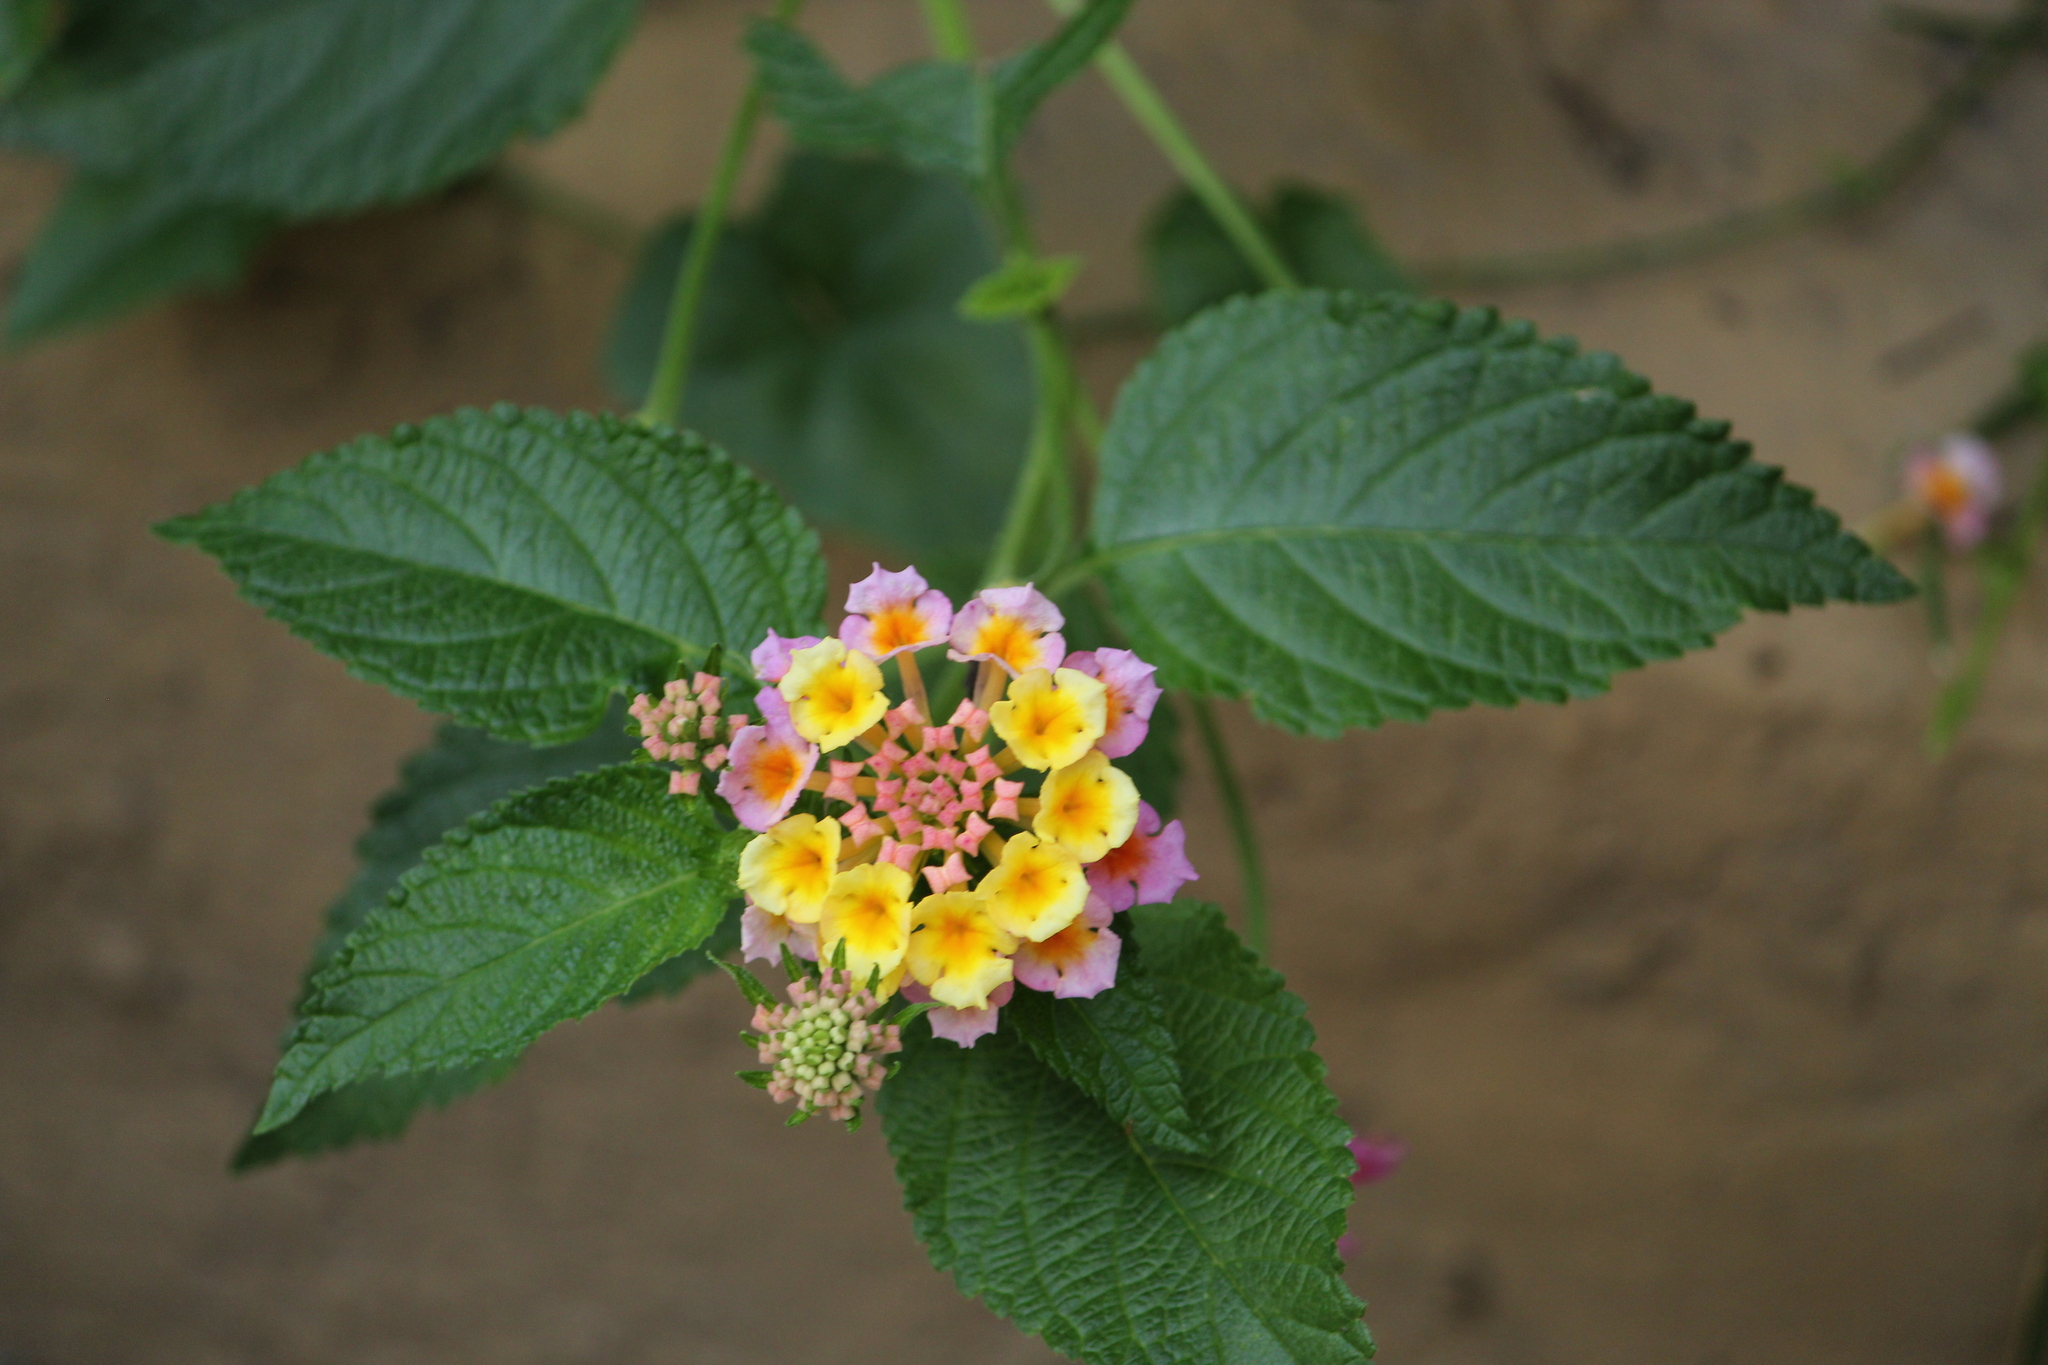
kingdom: Plantae
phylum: Tracheophyta
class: Magnoliopsida
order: Lamiales
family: Verbenaceae
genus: Lantana
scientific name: Lantana camara
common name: Lantana
